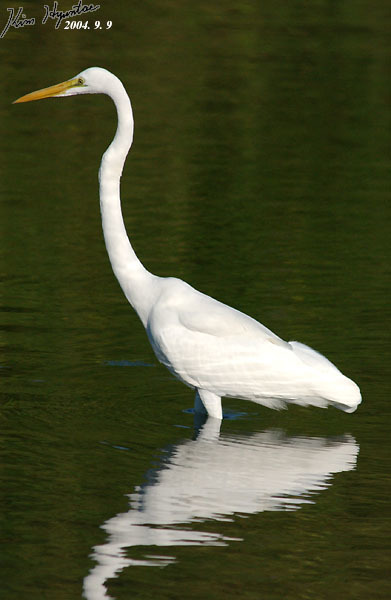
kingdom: Animalia
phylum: Chordata
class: Aves
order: Pelecaniformes
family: Ardeidae
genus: Ardea
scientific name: Ardea alba
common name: Great egret
